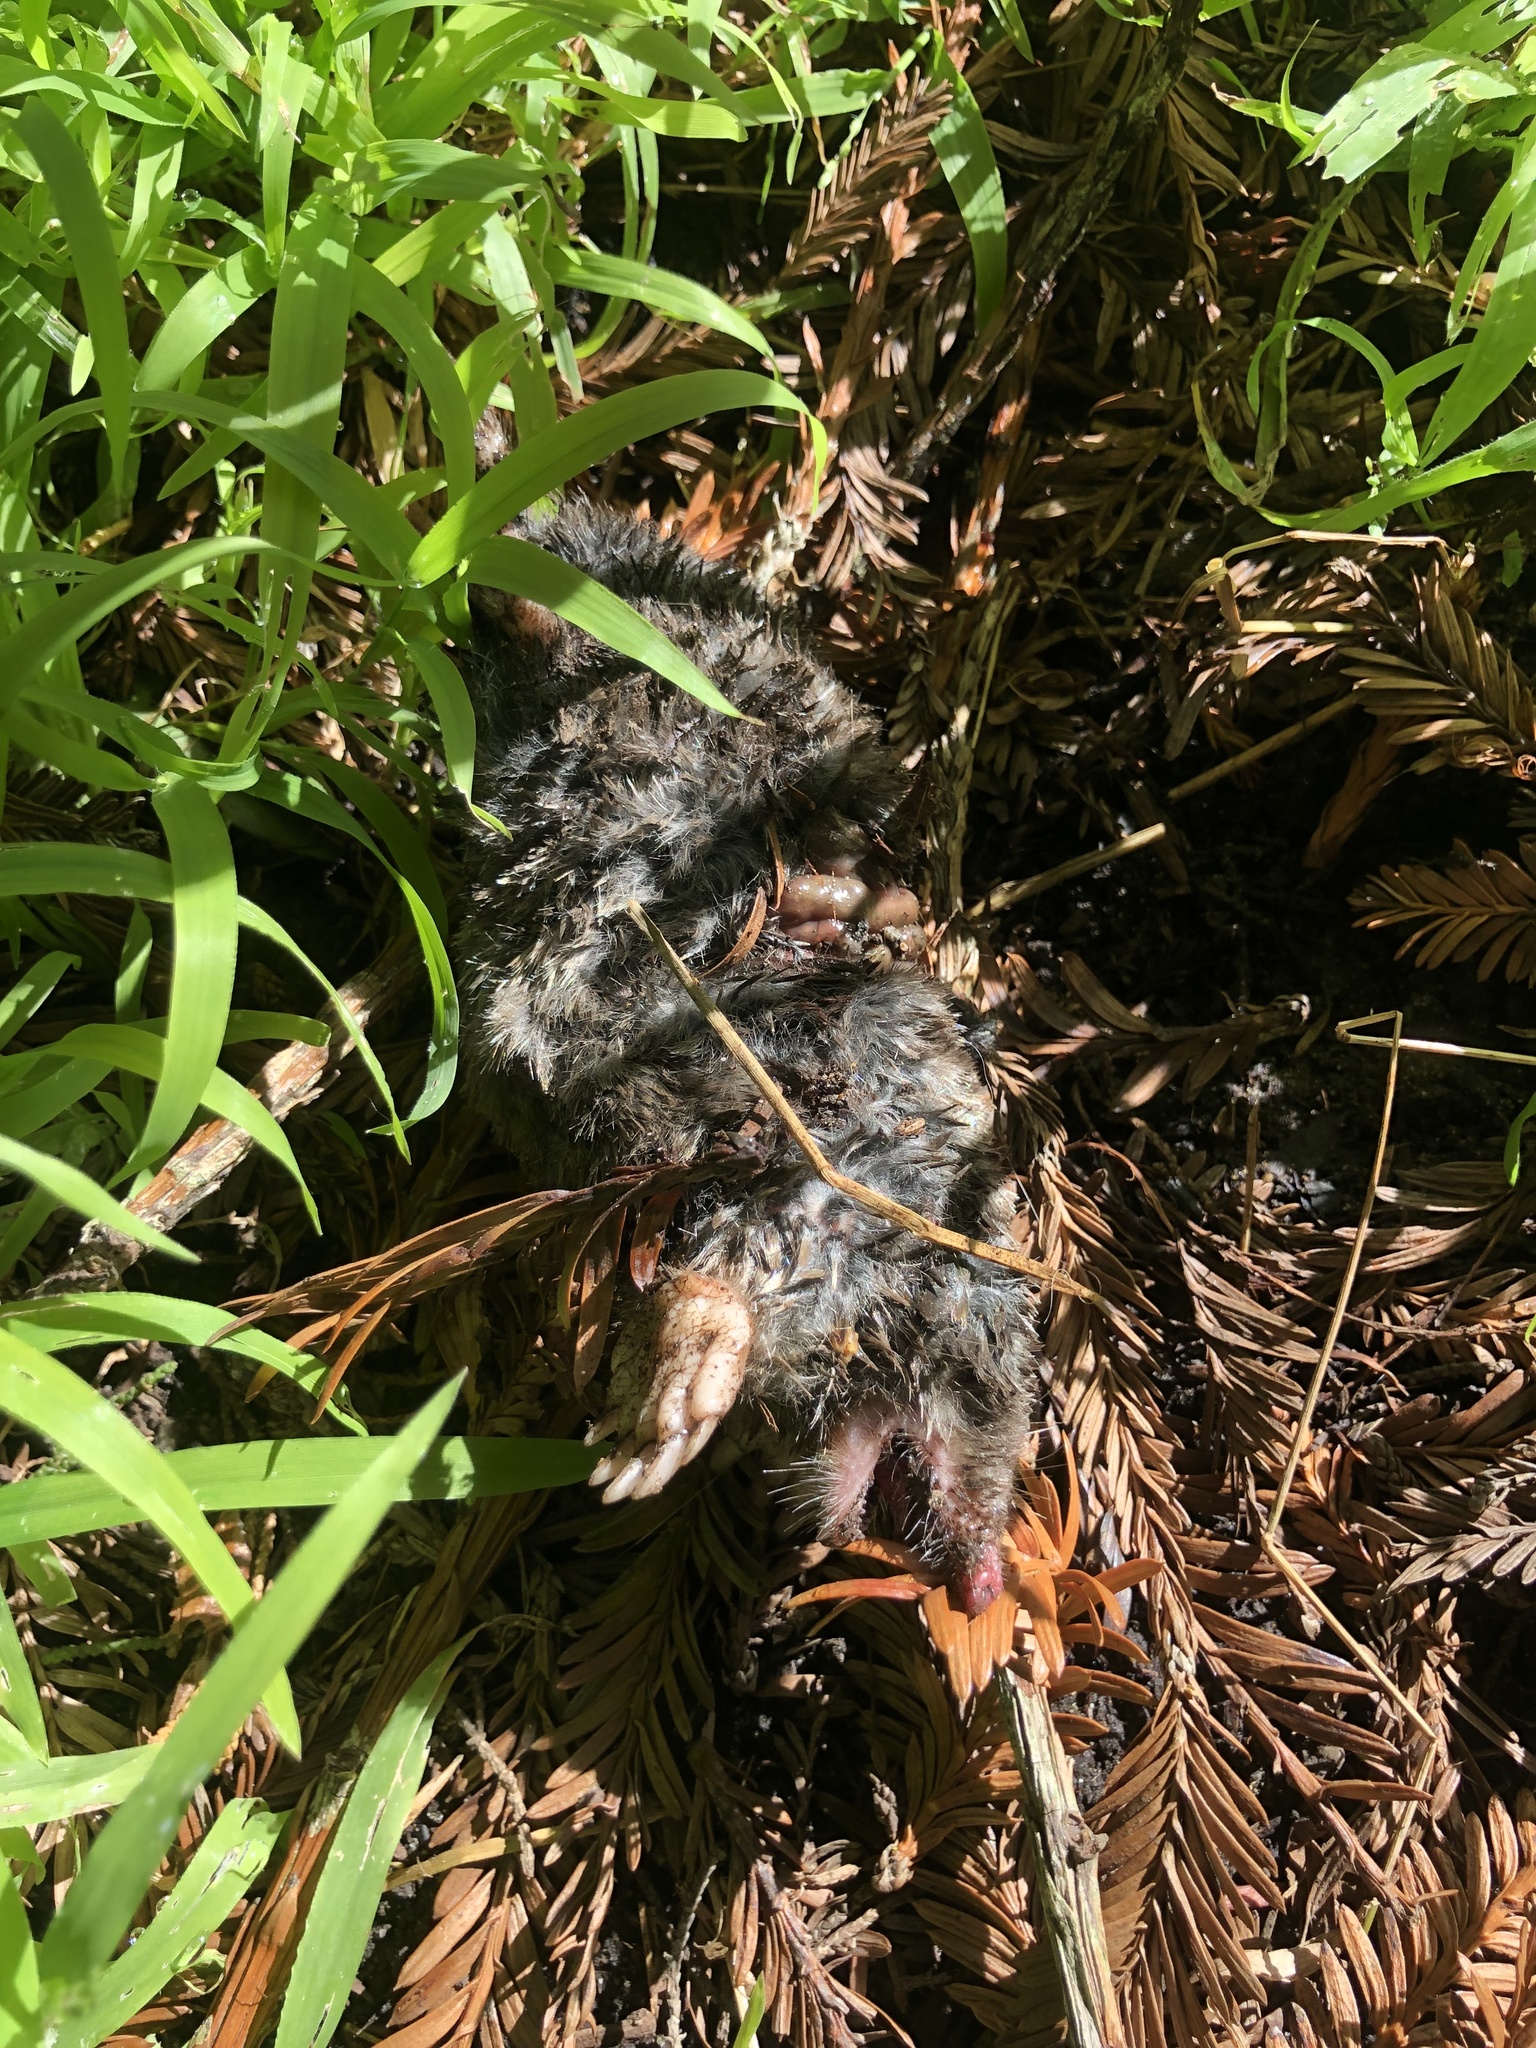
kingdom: Animalia
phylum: Chordata
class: Mammalia
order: Soricomorpha
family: Talpidae
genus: Scapanus
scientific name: Scapanus latimanus
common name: Broad-footed mole
